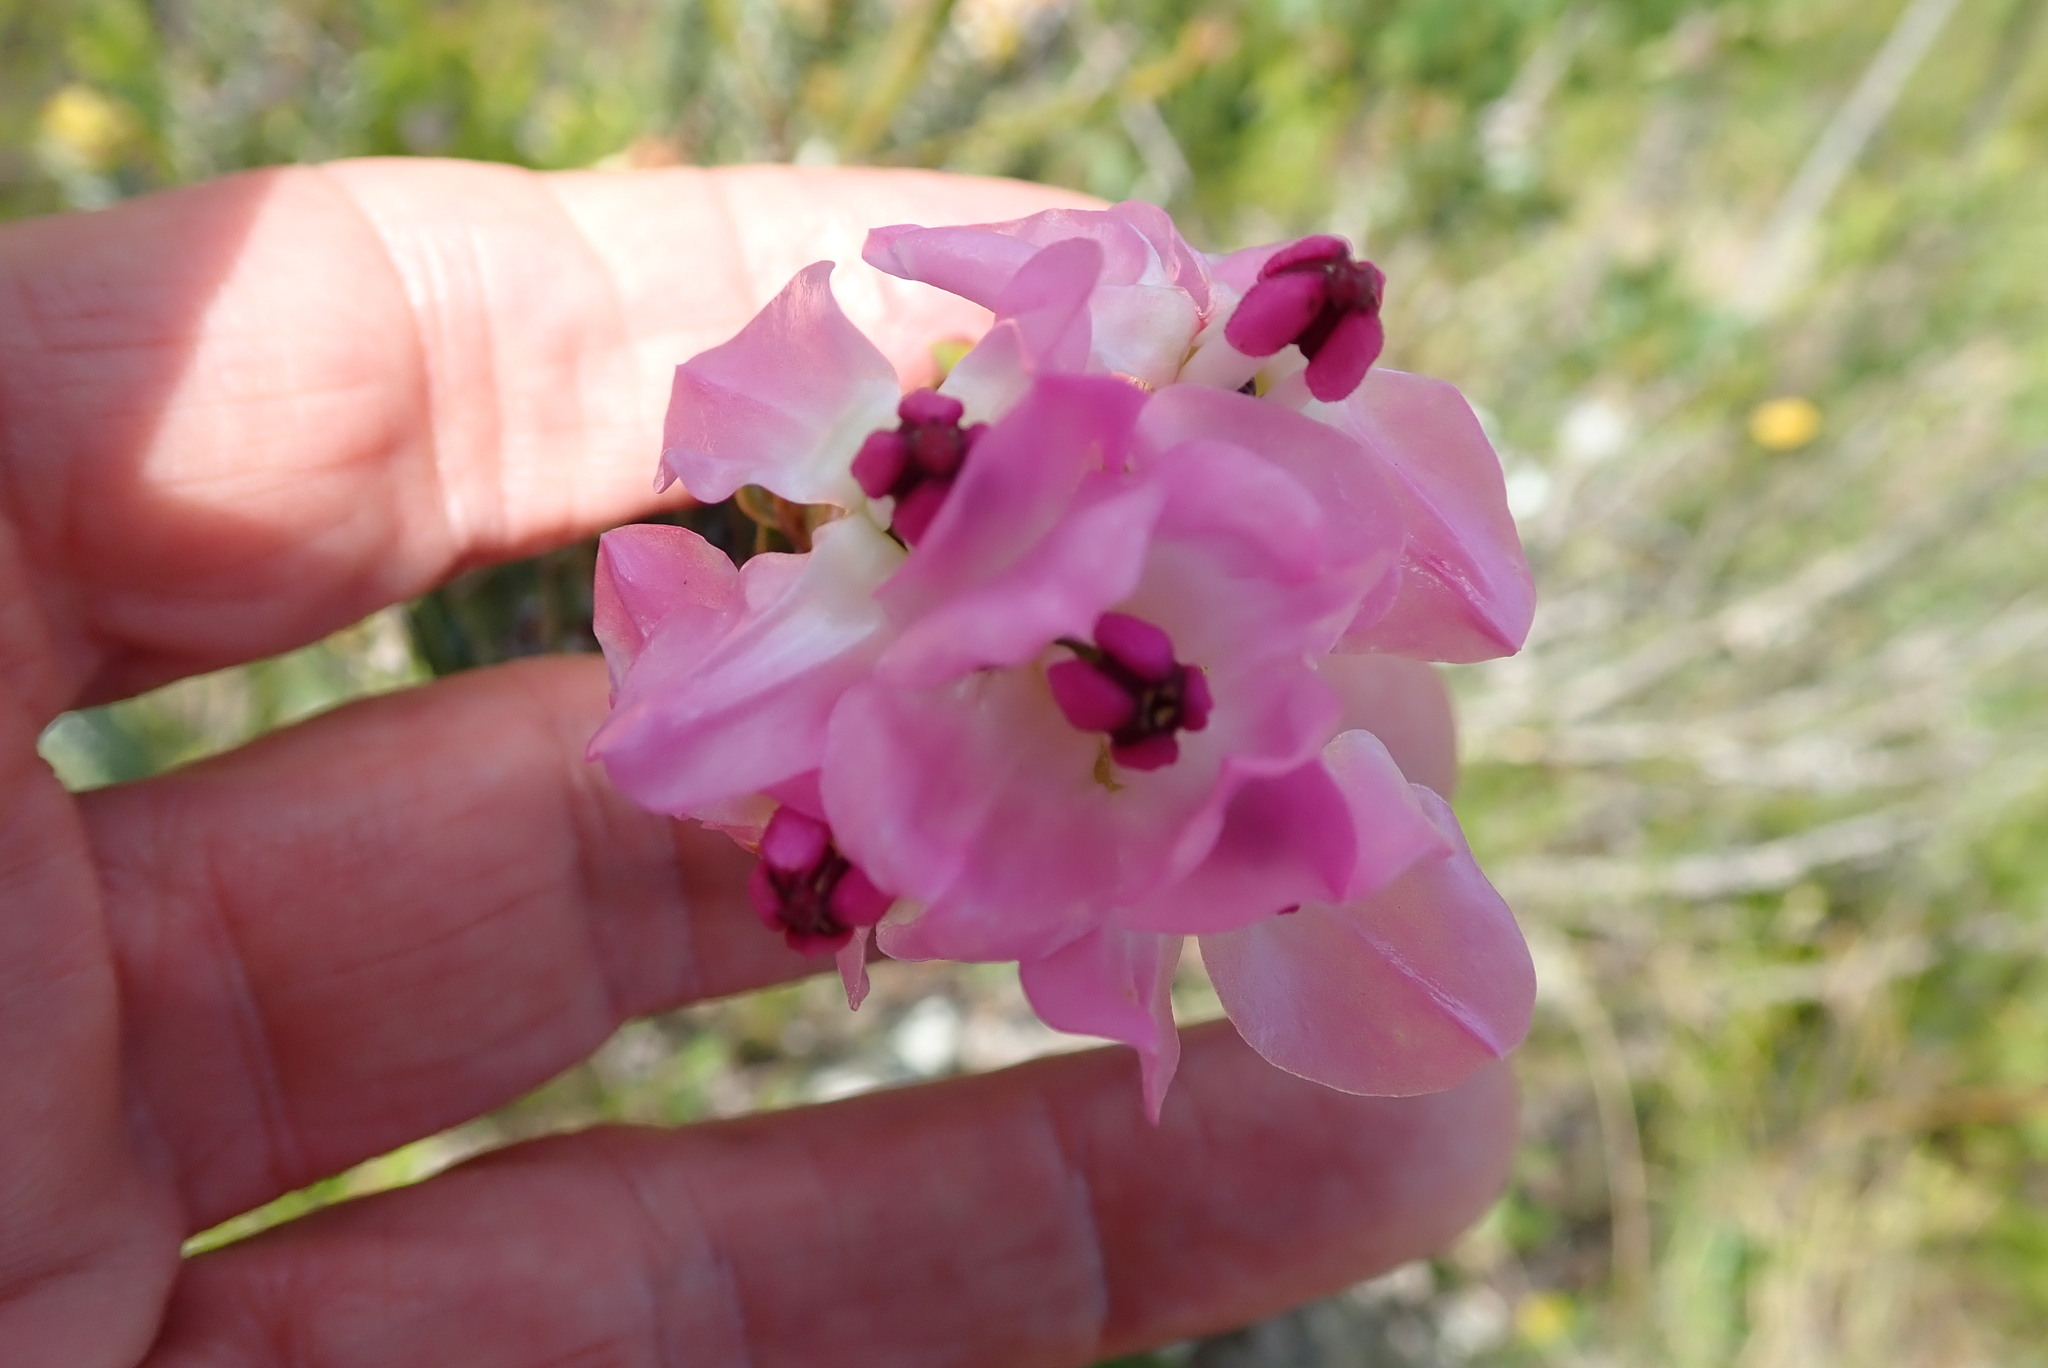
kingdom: Plantae
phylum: Tracheophyta
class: Magnoliopsida
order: Myrtales
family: Penaeaceae
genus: Saltera
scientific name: Saltera sarcocolla
